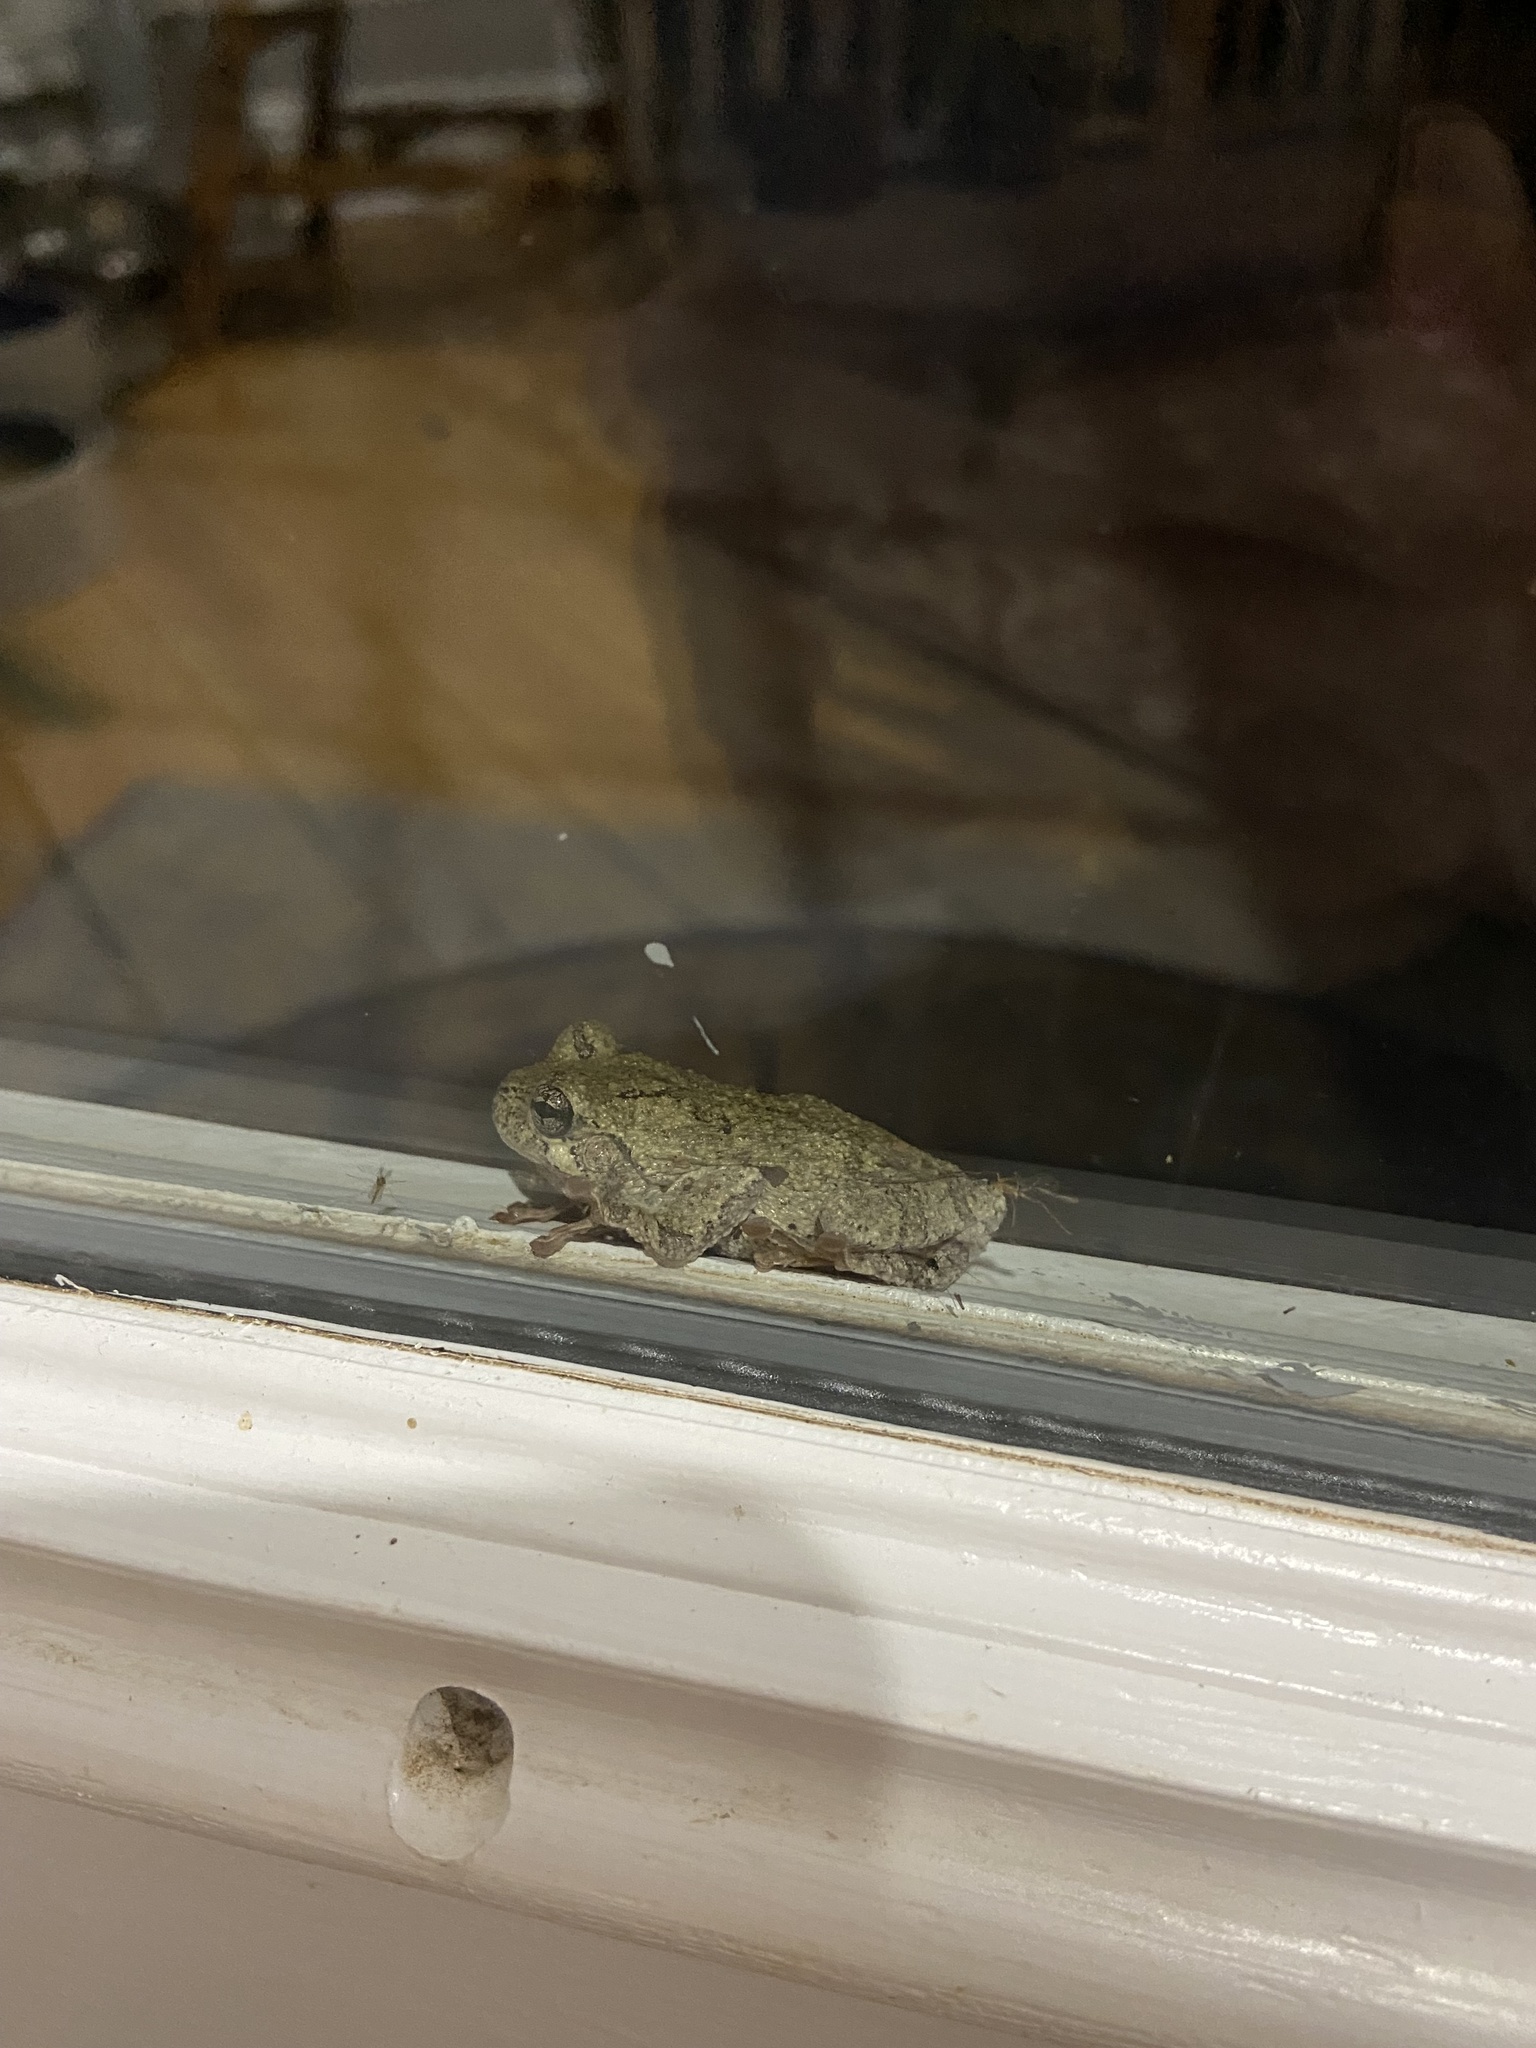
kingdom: Animalia
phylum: Chordata
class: Amphibia
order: Anura
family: Hylidae
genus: Dryophytes
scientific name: Dryophytes chrysoscelis
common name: Cope's gray treefrog
